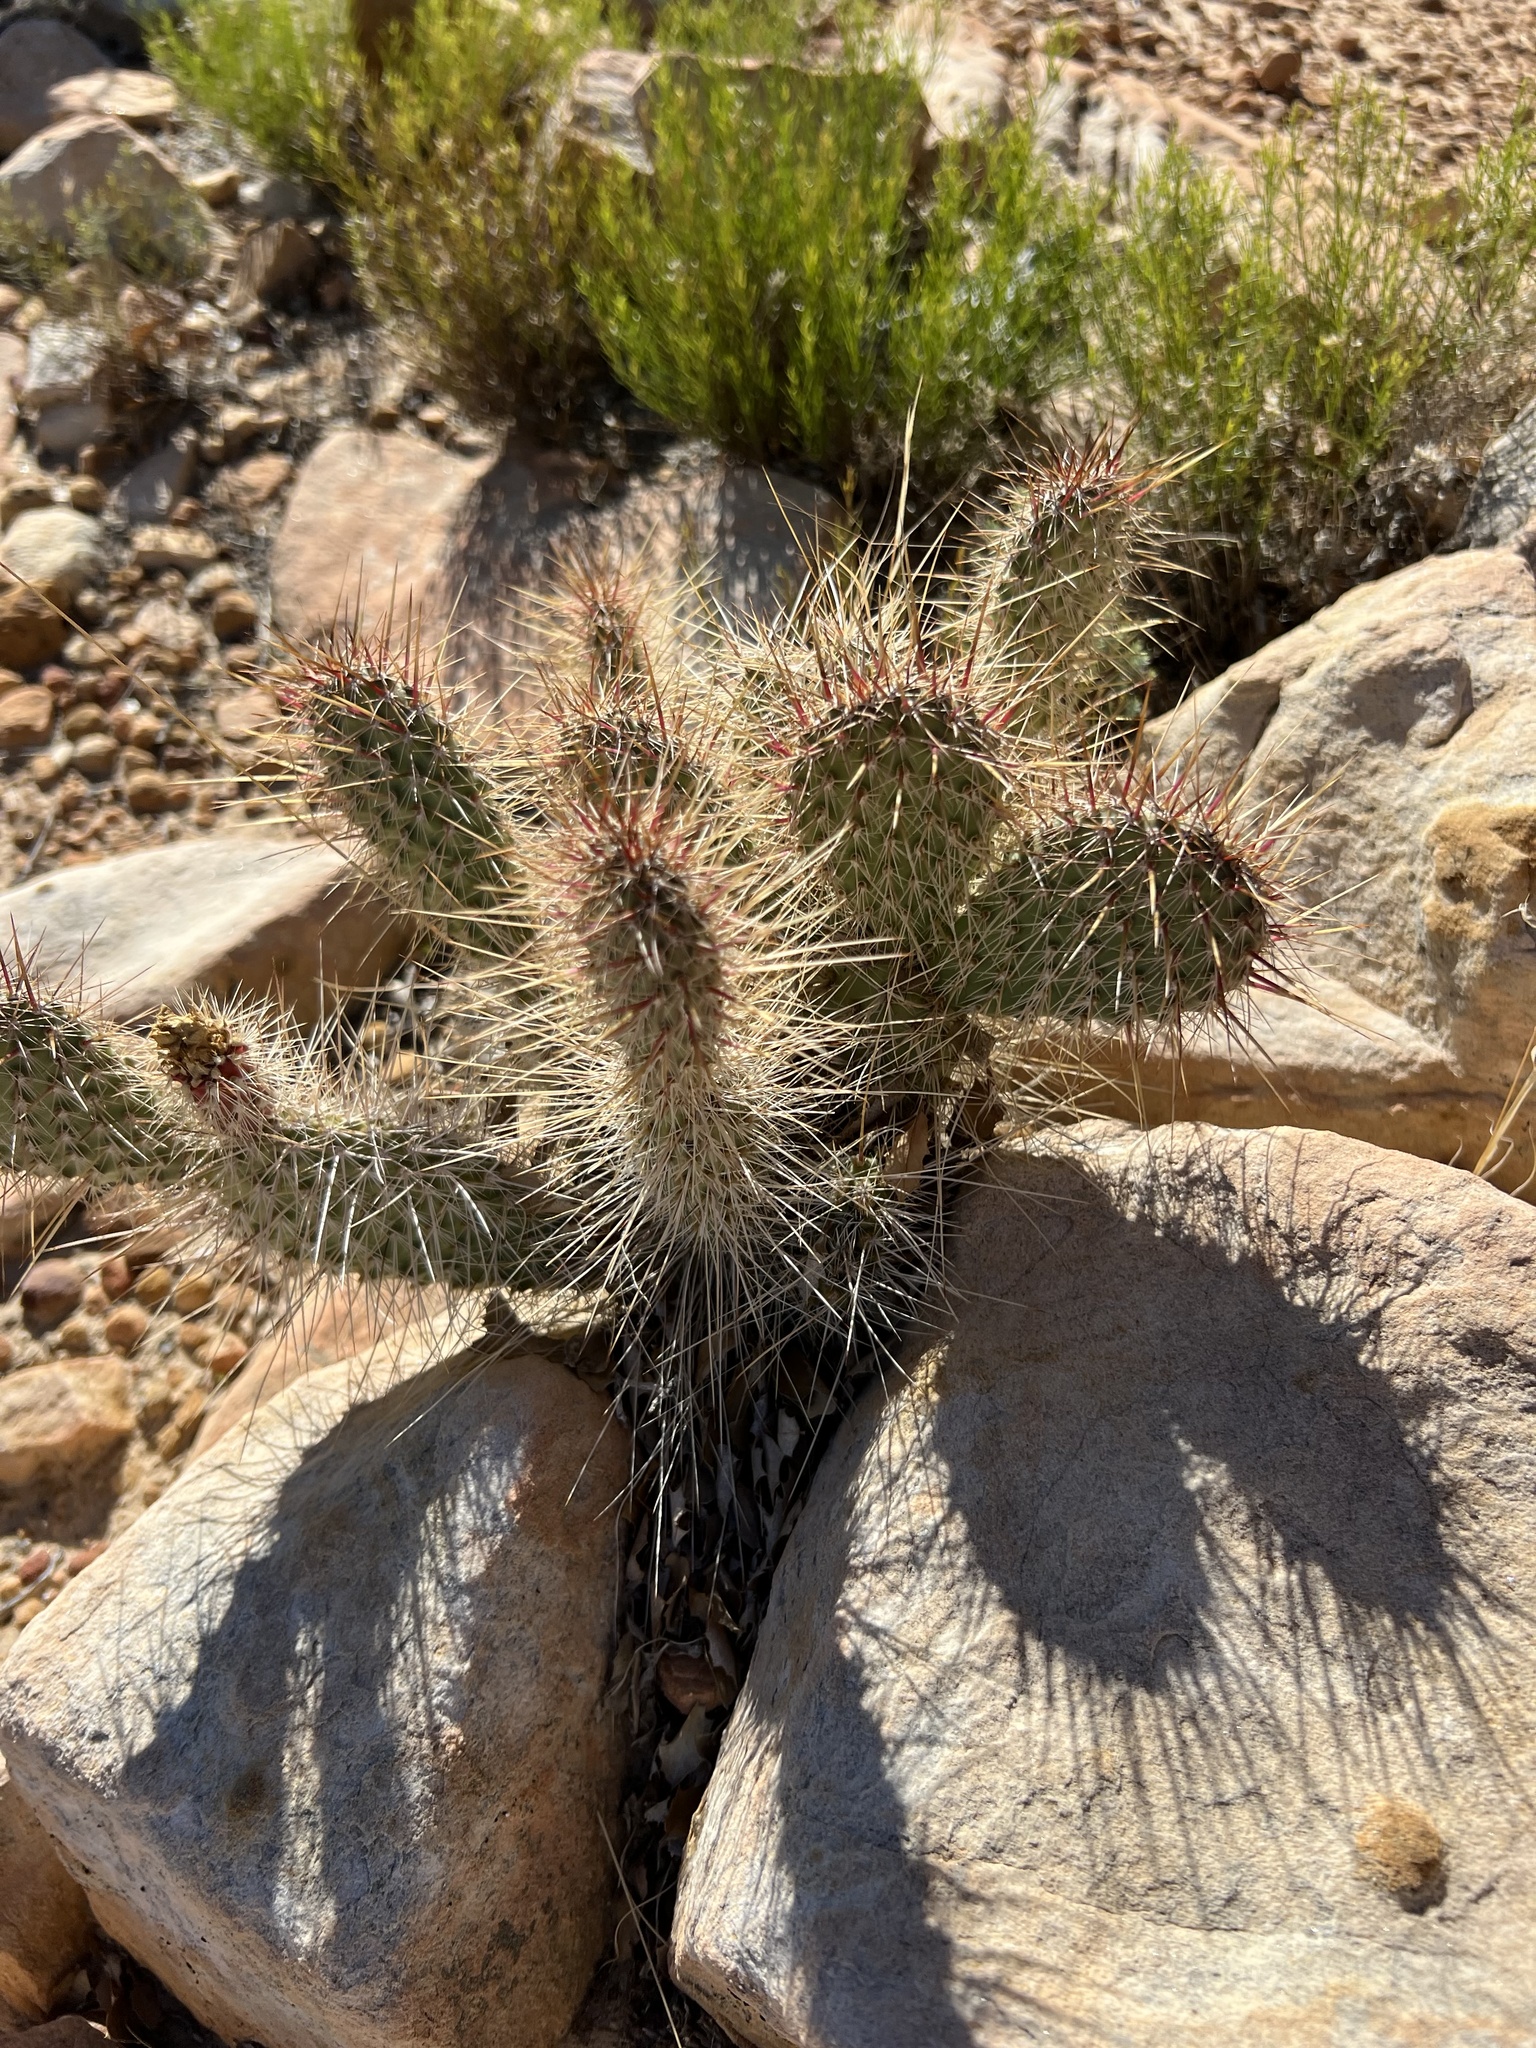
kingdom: Plantae
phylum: Tracheophyta
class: Magnoliopsida
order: Caryophyllales
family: Cactaceae
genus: Opuntia
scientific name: Opuntia polyacantha
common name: Plains prickly-pear
